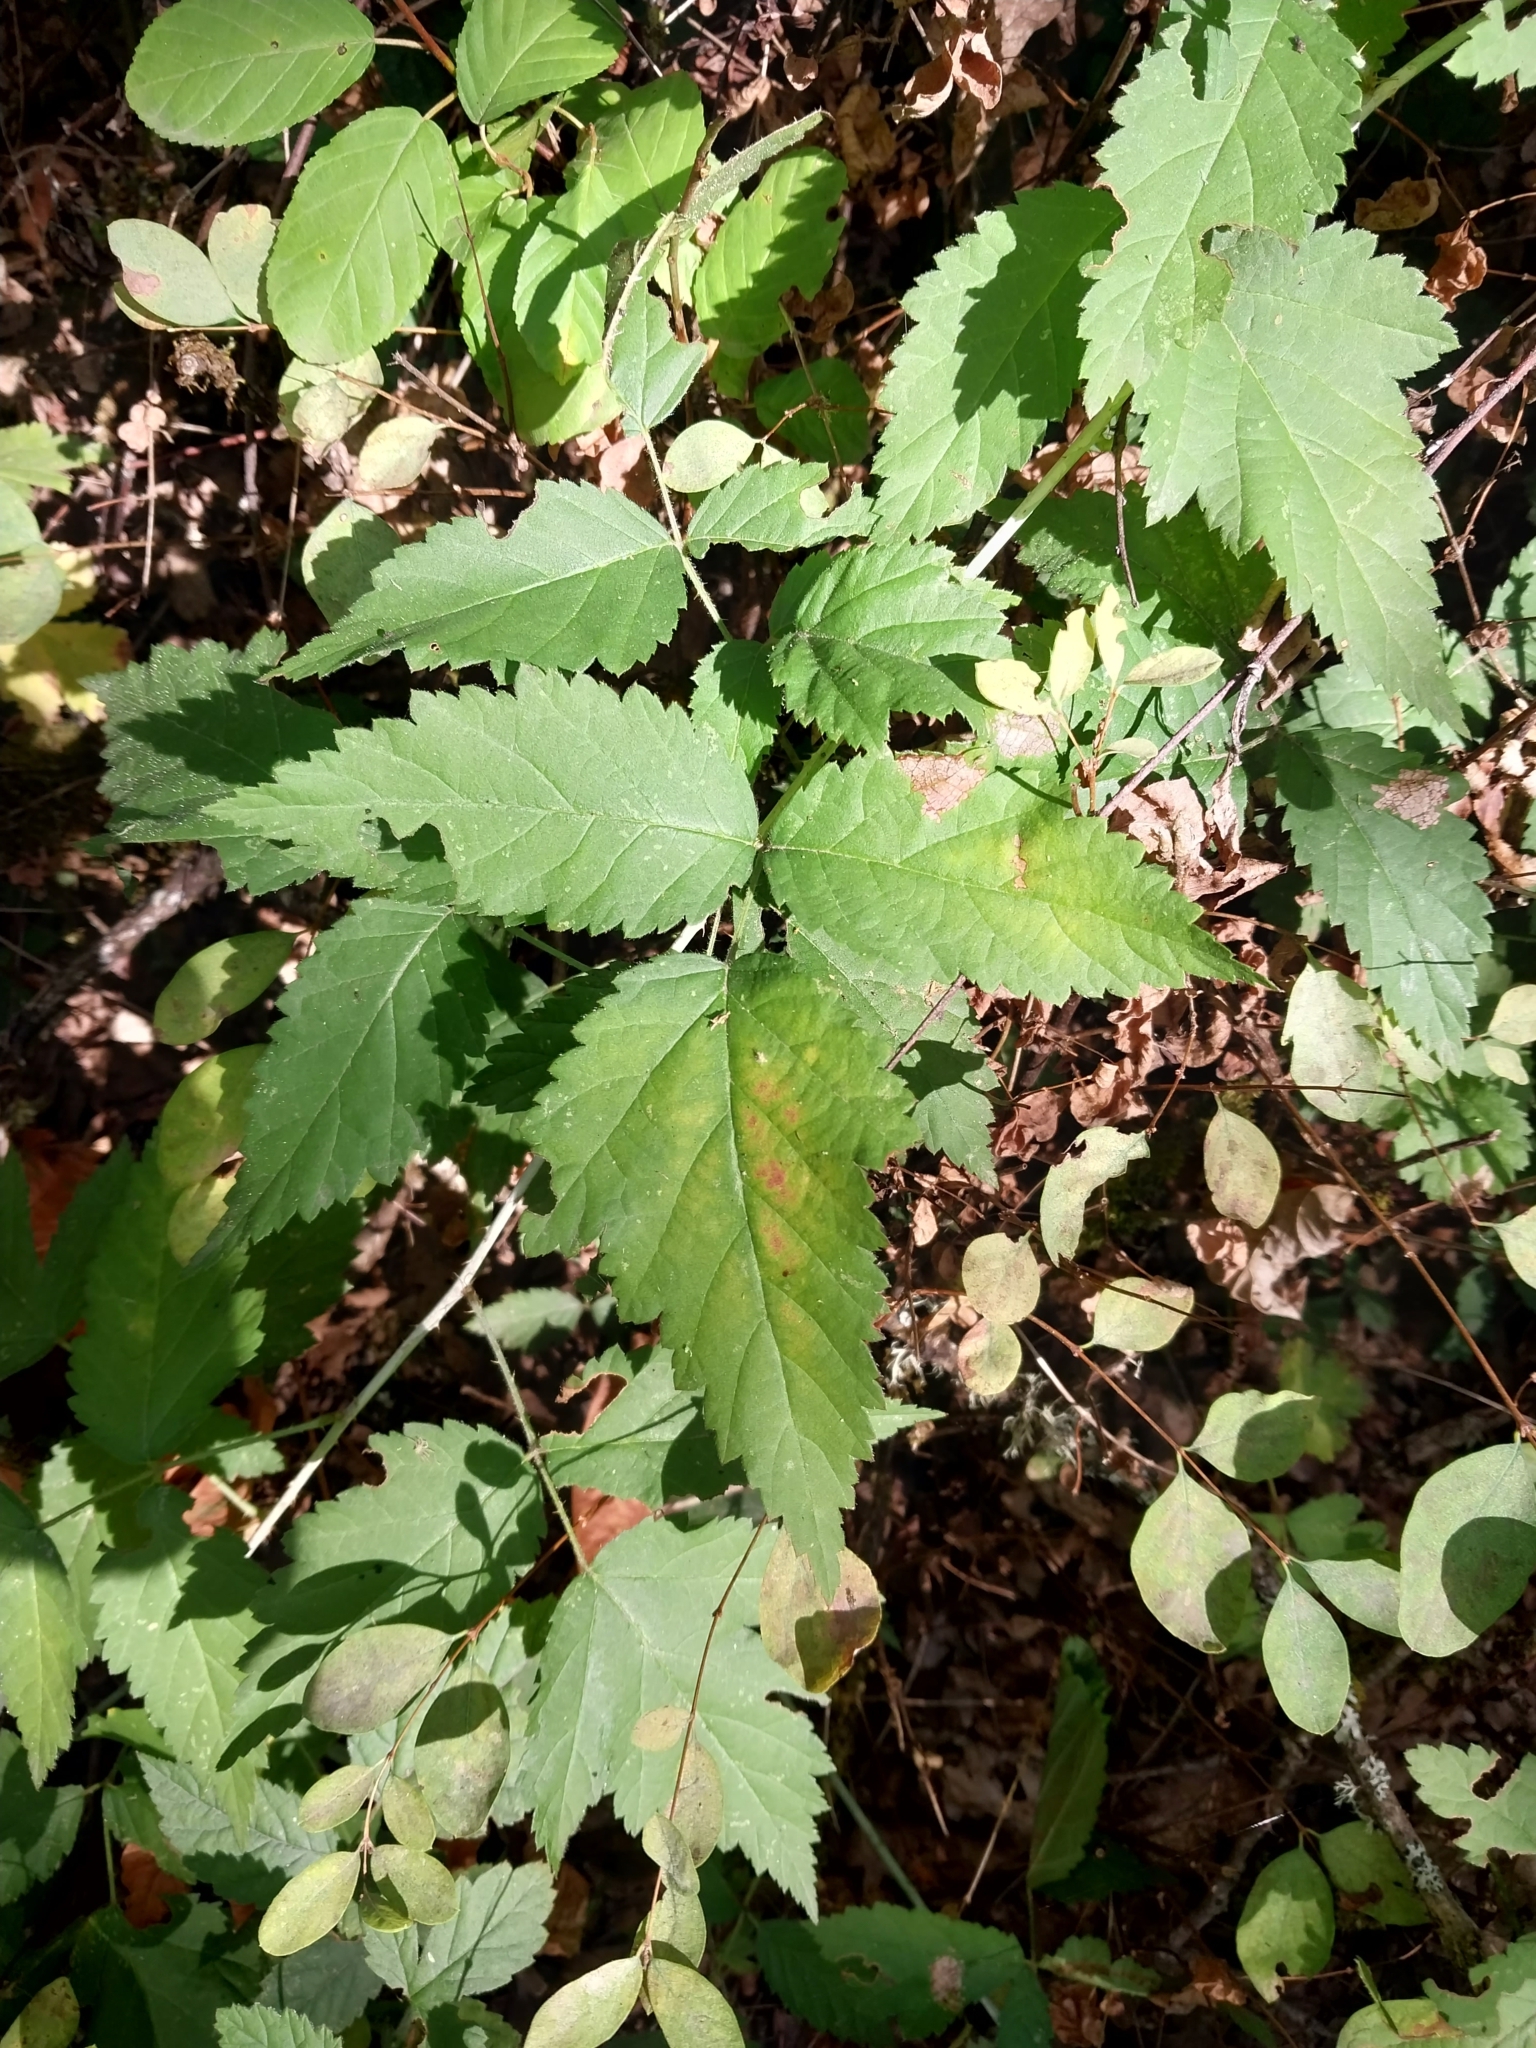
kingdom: Plantae
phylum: Tracheophyta
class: Magnoliopsida
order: Rosales
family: Rosaceae
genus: Rubus
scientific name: Rubus ursinus
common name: Pacific blackberry
